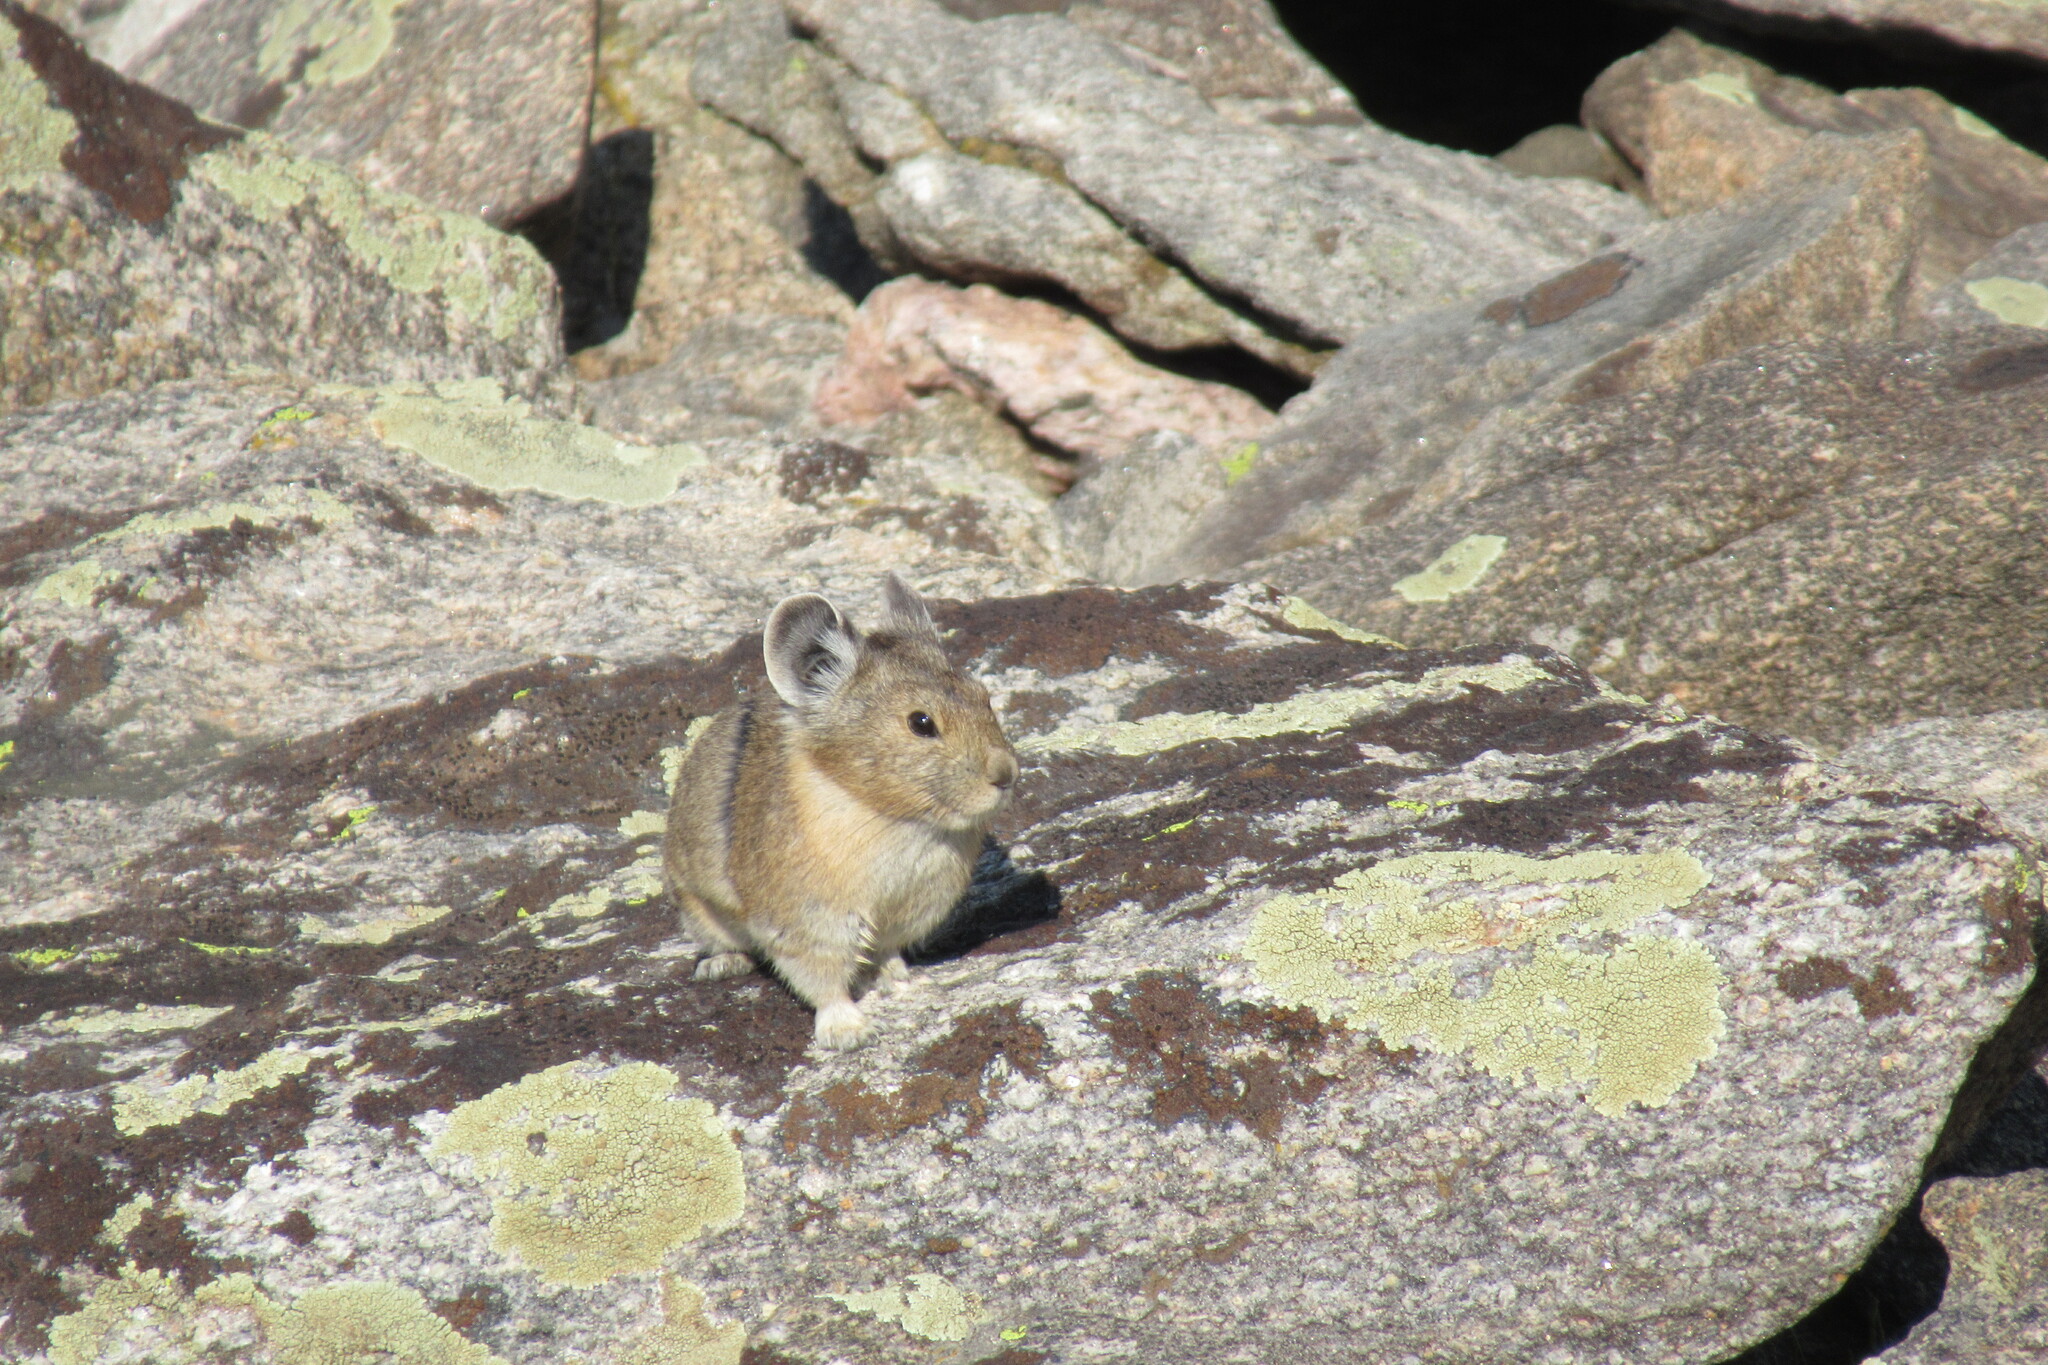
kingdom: Animalia
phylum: Chordata
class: Mammalia
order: Lagomorpha
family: Ochotonidae
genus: Ochotona
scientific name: Ochotona princeps
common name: American pika
